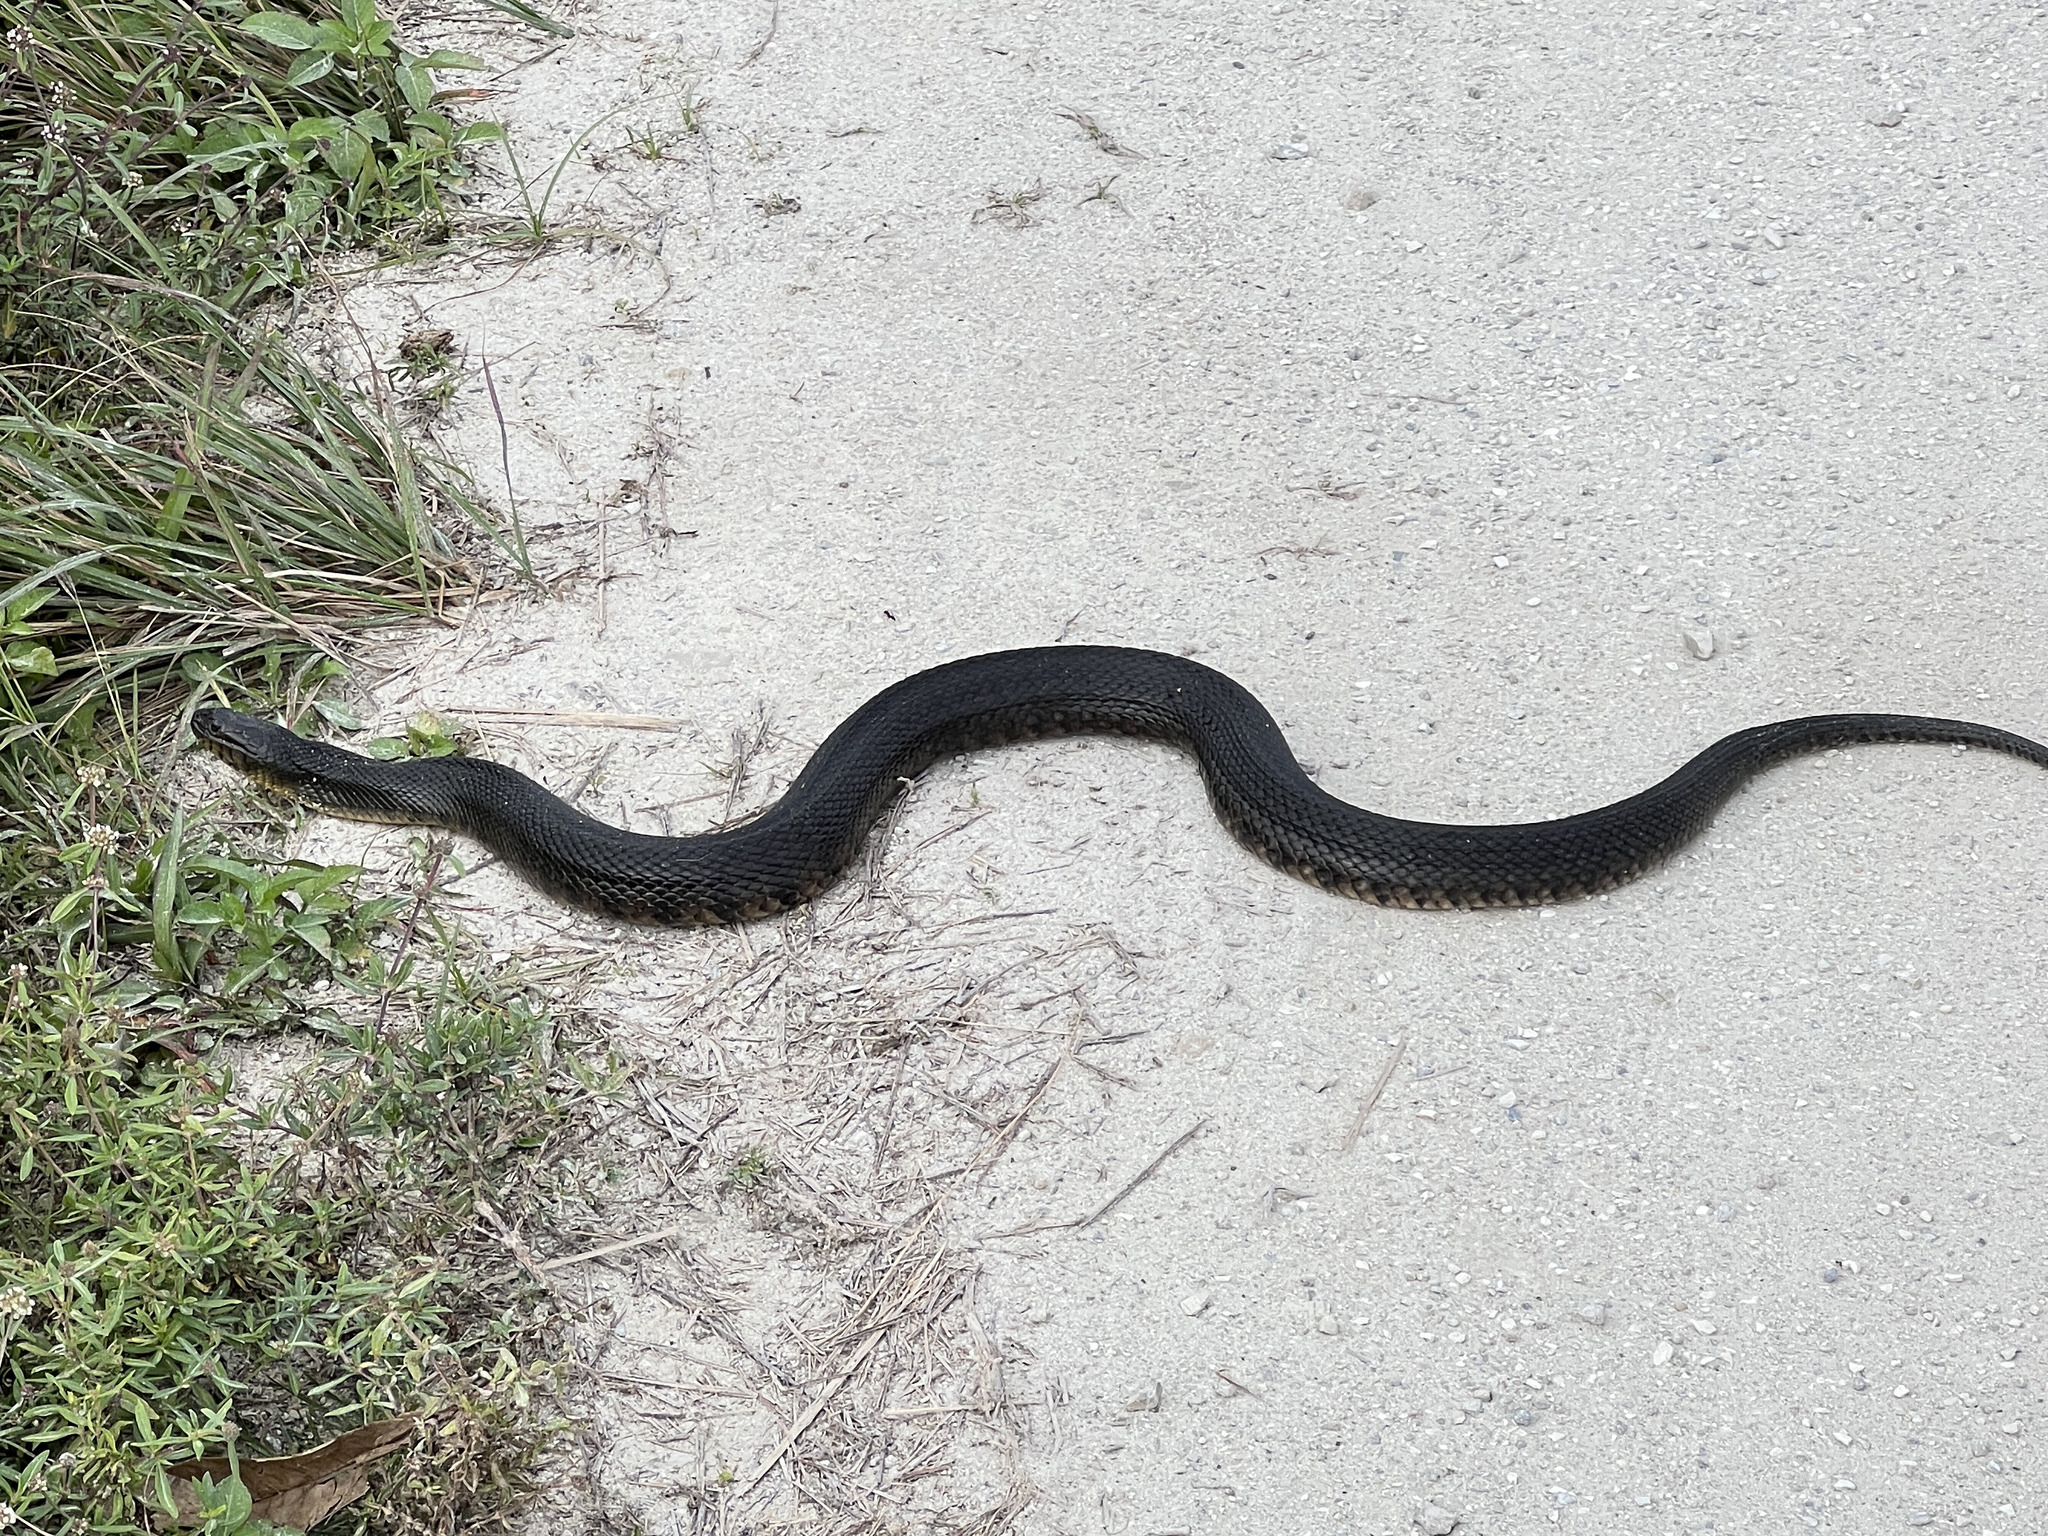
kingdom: Animalia
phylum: Chordata
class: Squamata
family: Colubridae
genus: Nerodia
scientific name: Nerodia floridana
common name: Florida green watersnake
